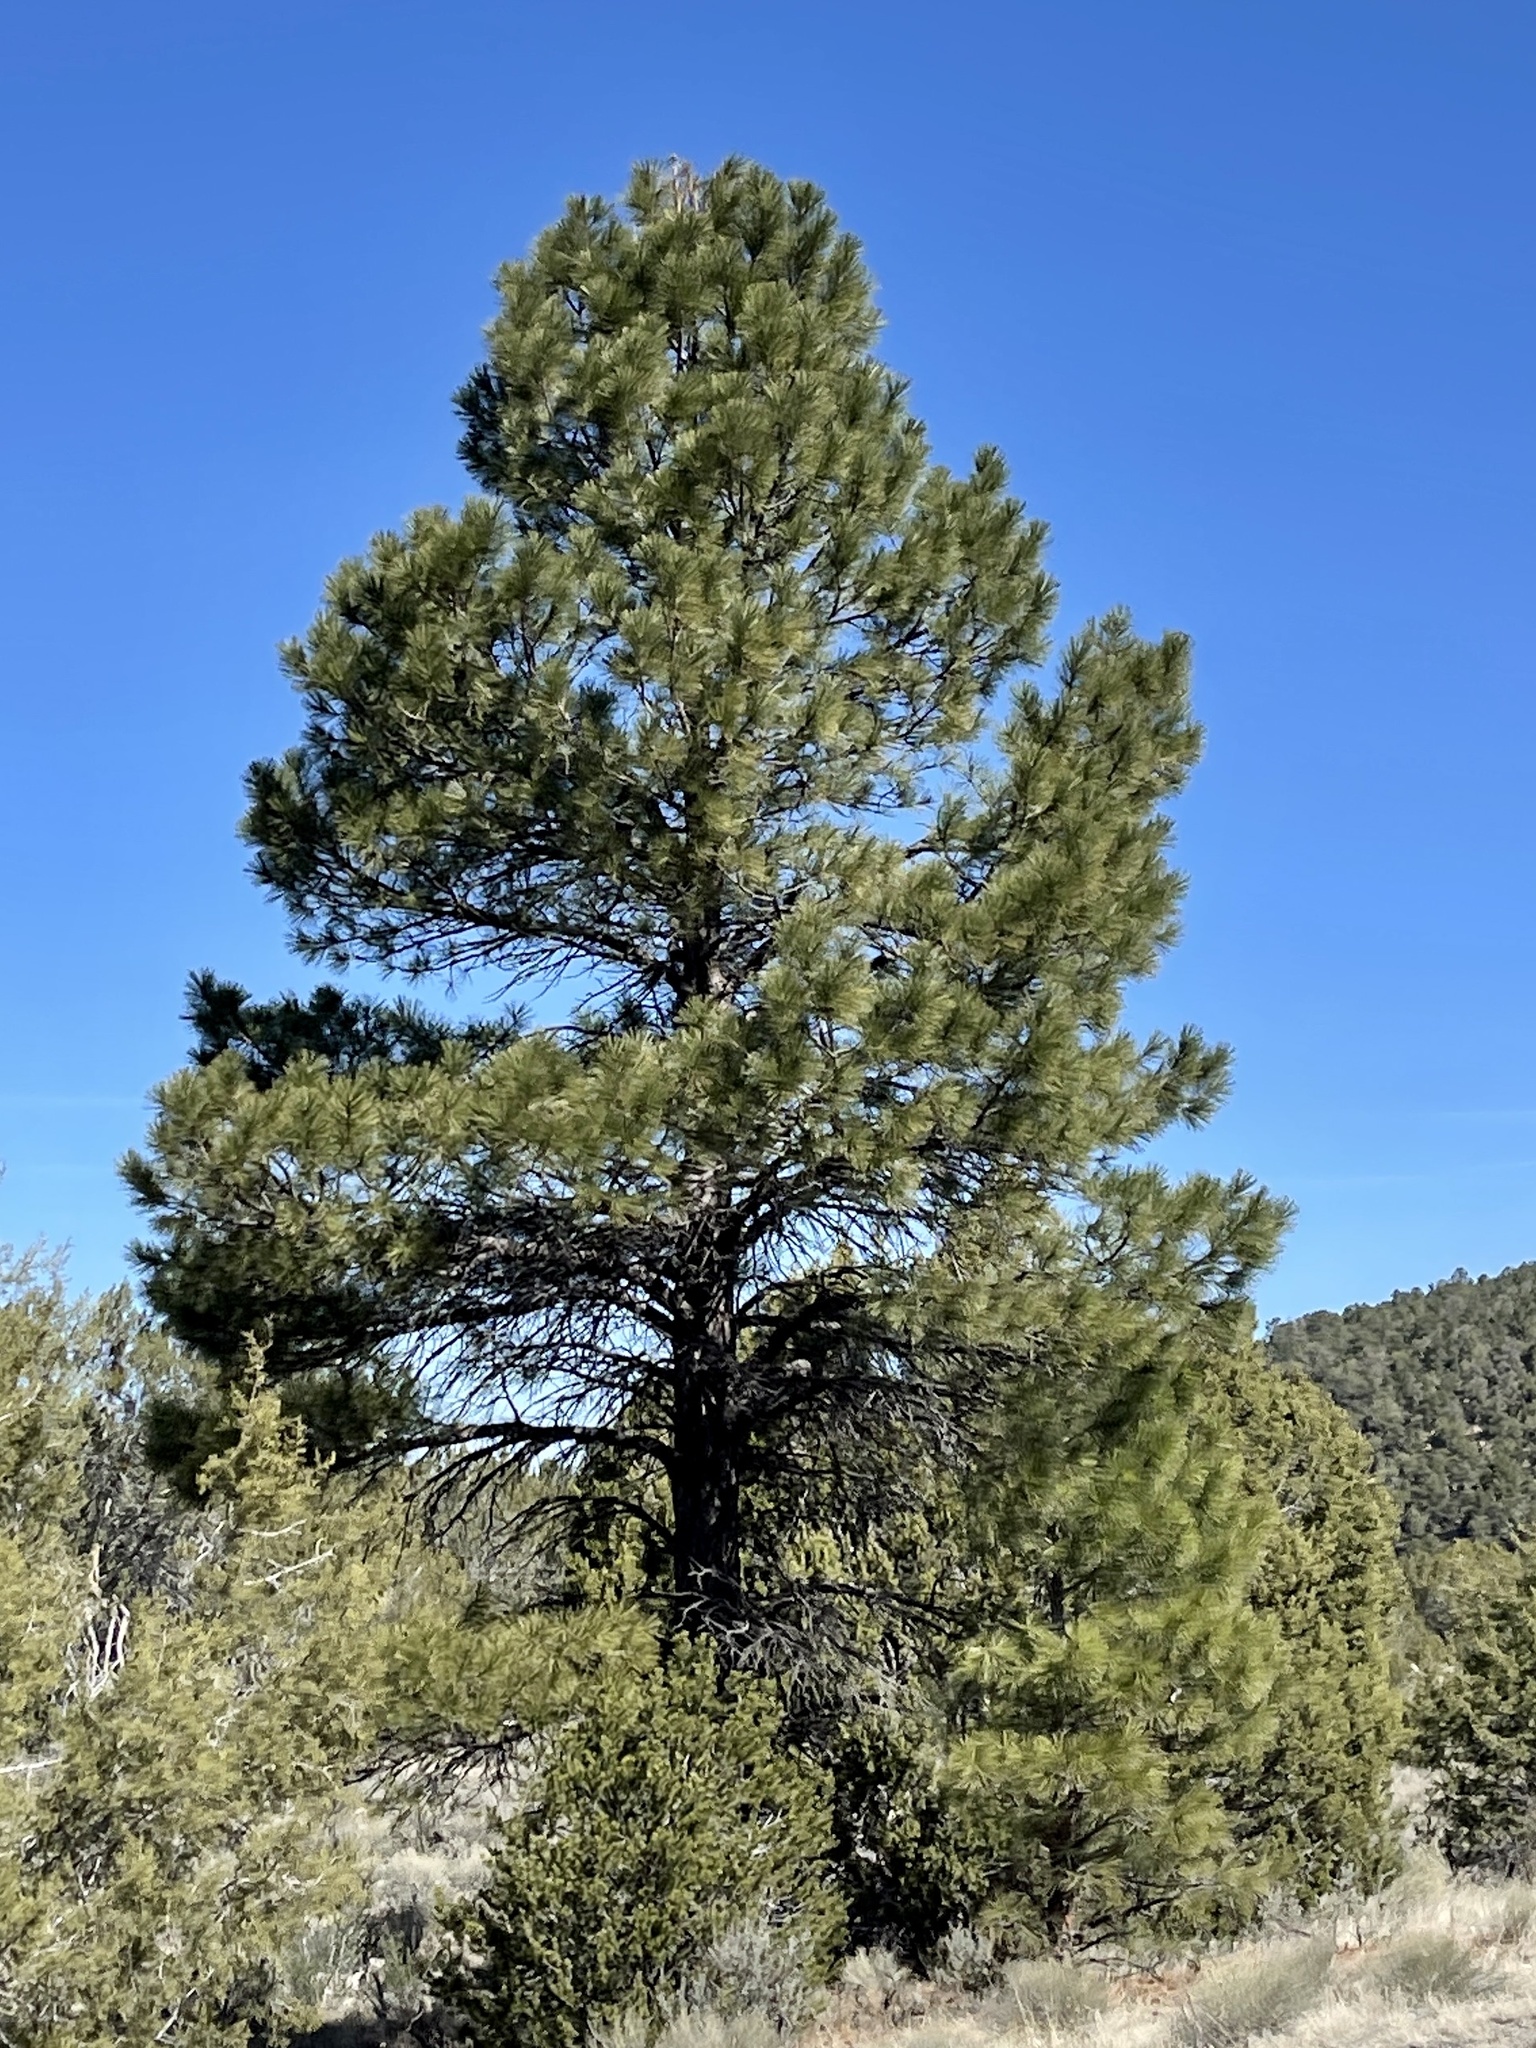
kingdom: Plantae
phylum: Tracheophyta
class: Pinopsida
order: Pinales
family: Pinaceae
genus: Pinus
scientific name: Pinus ponderosa
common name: Western yellow-pine
